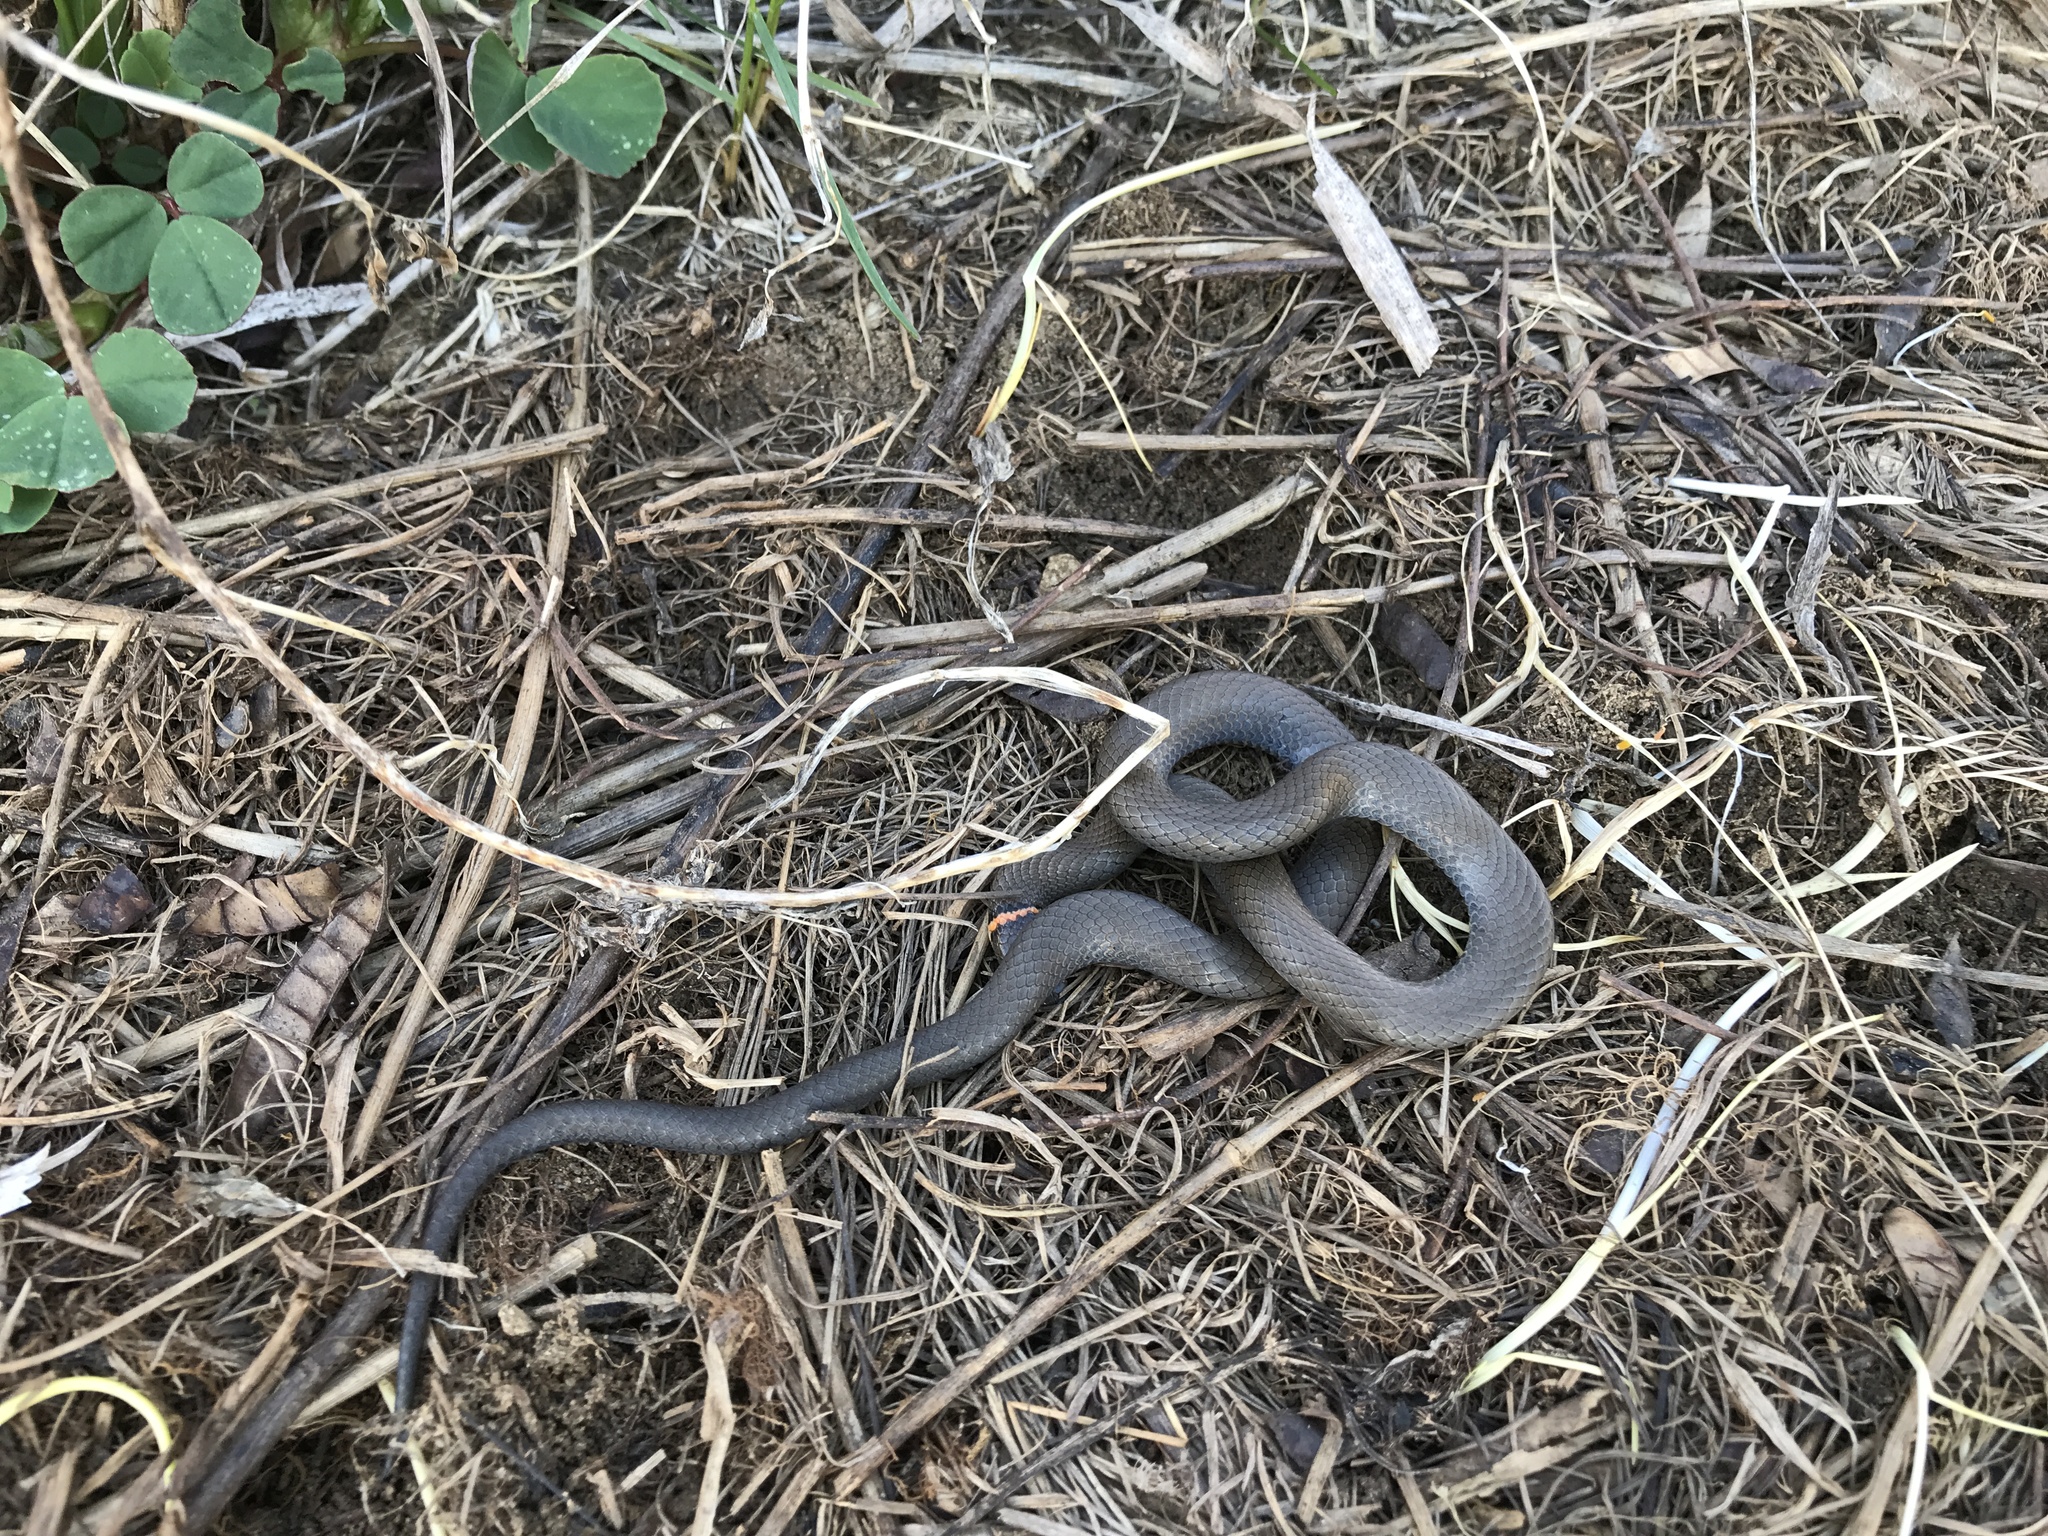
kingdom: Animalia
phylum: Chordata
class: Squamata
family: Colubridae
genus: Diadophis
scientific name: Diadophis punctatus
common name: Ringneck snake
